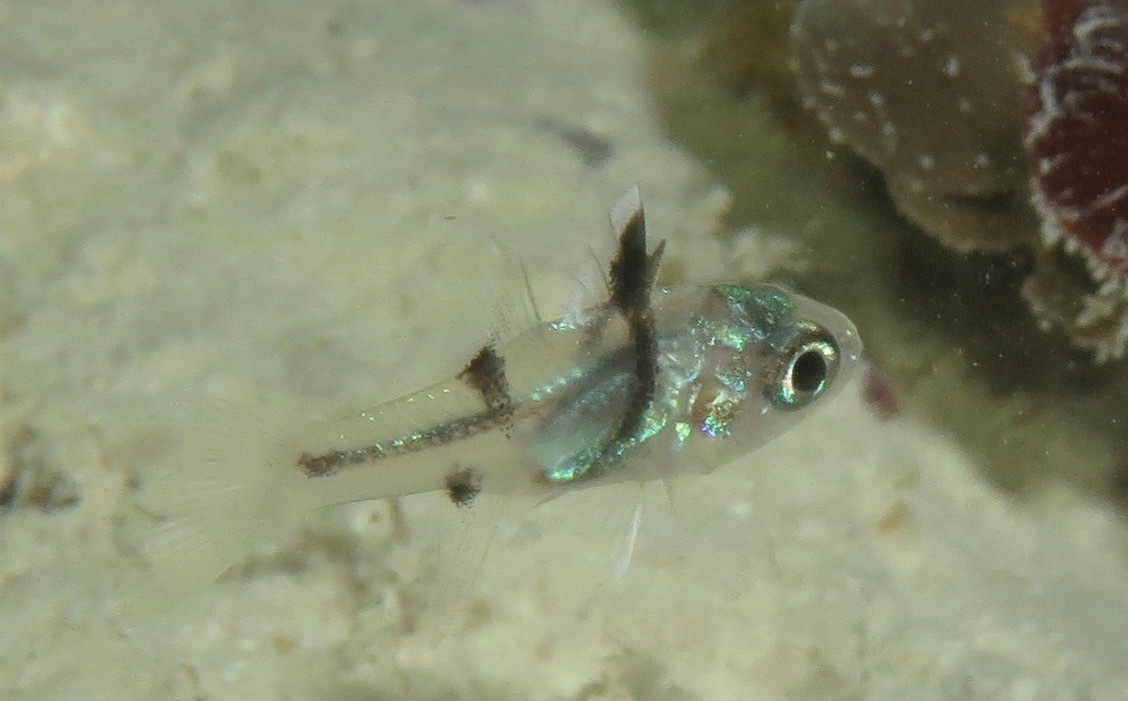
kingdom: Animalia
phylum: Chordata
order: Perciformes
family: Apogonidae
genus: Pristicon
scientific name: Pristicon trimaculatus
